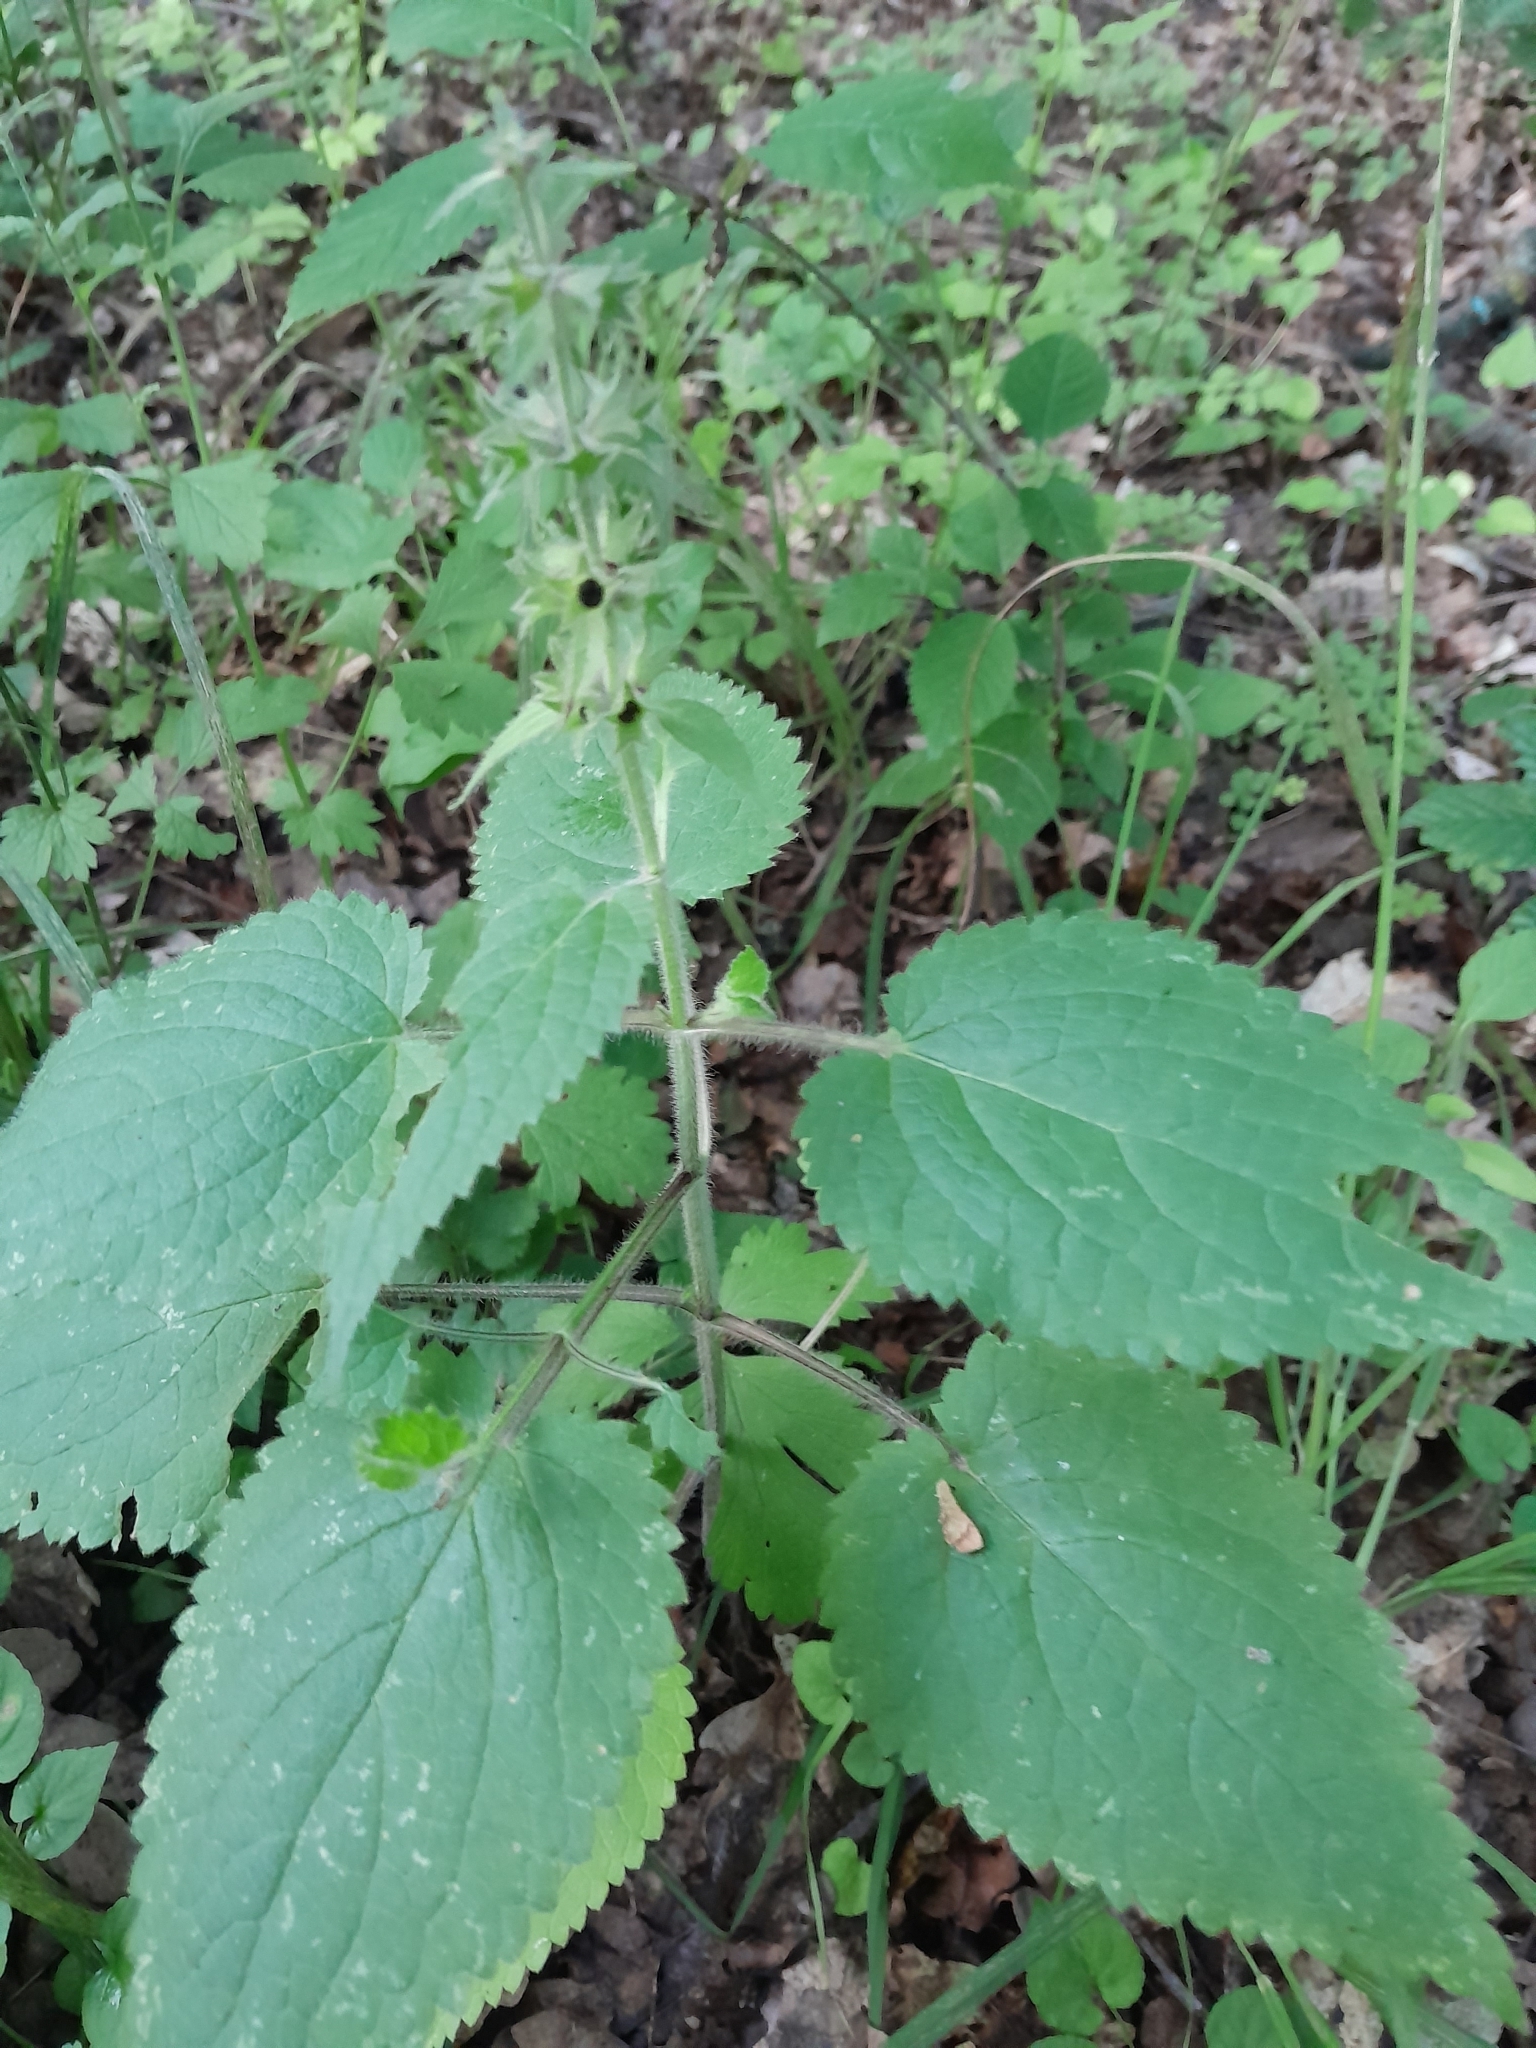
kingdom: Plantae
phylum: Tracheophyta
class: Magnoliopsida
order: Lamiales
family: Lamiaceae
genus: Stachys
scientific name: Stachys sylvatica
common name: Hedge woundwort
